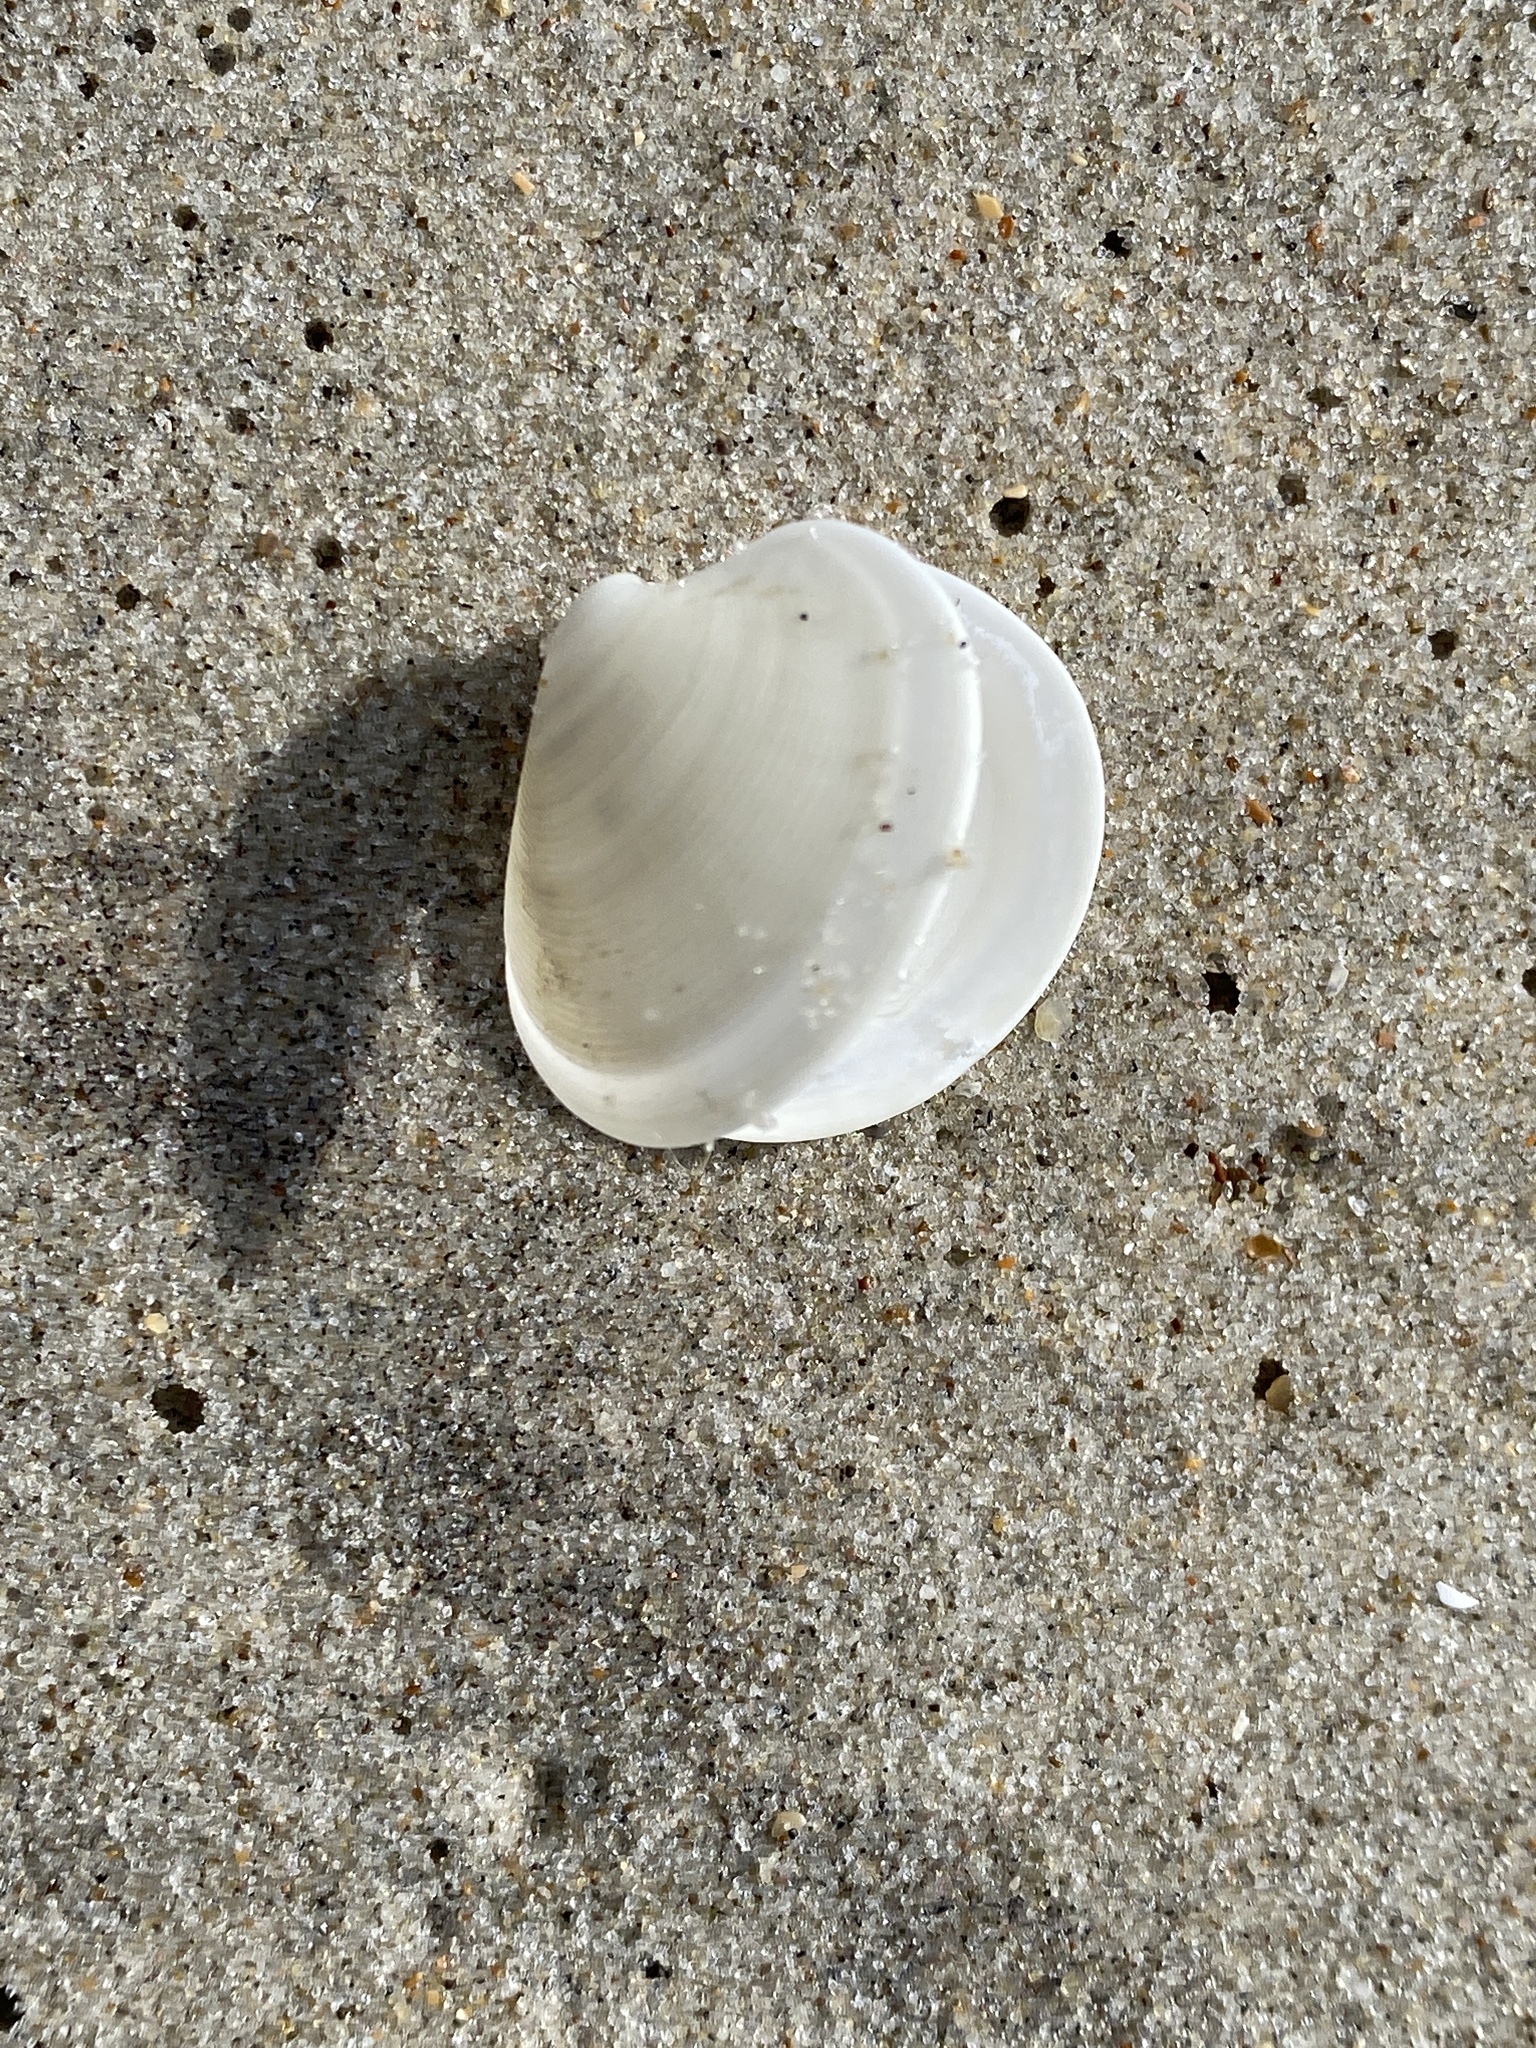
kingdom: Animalia
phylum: Mollusca
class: Bivalvia
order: Venerida
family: Veneridae
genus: Dosinia
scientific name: Dosinia discus
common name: Disk dosinia
